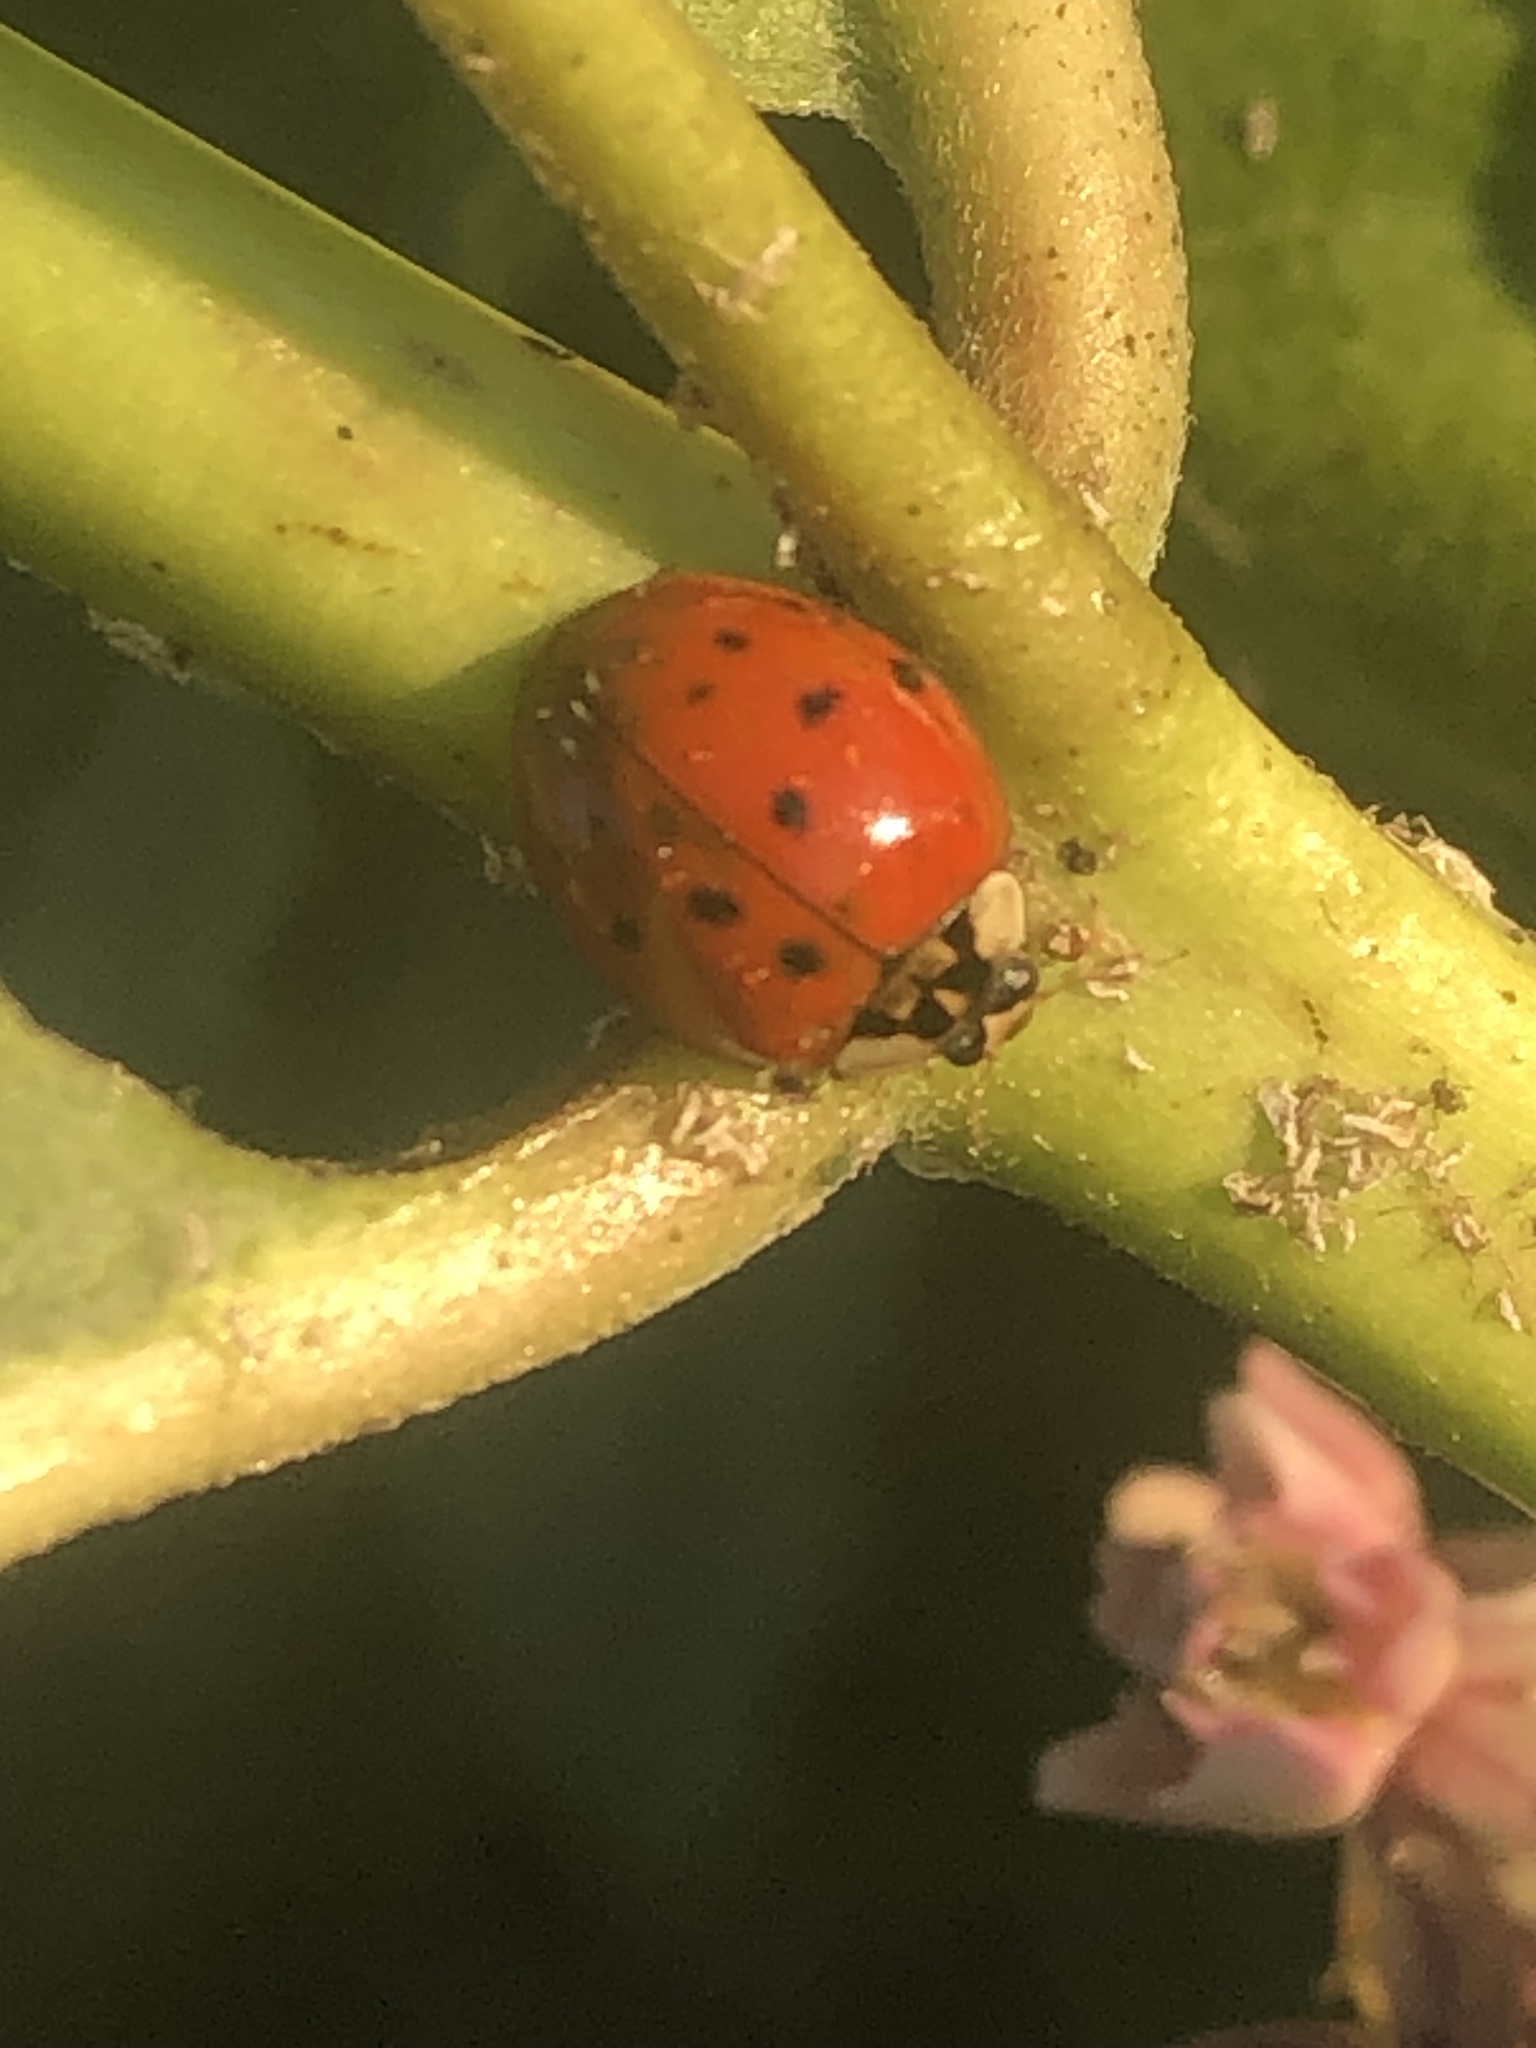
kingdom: Animalia
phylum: Arthropoda
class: Insecta
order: Coleoptera
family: Coccinellidae
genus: Harmonia
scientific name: Harmonia axyridis
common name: Harlequin ladybird
